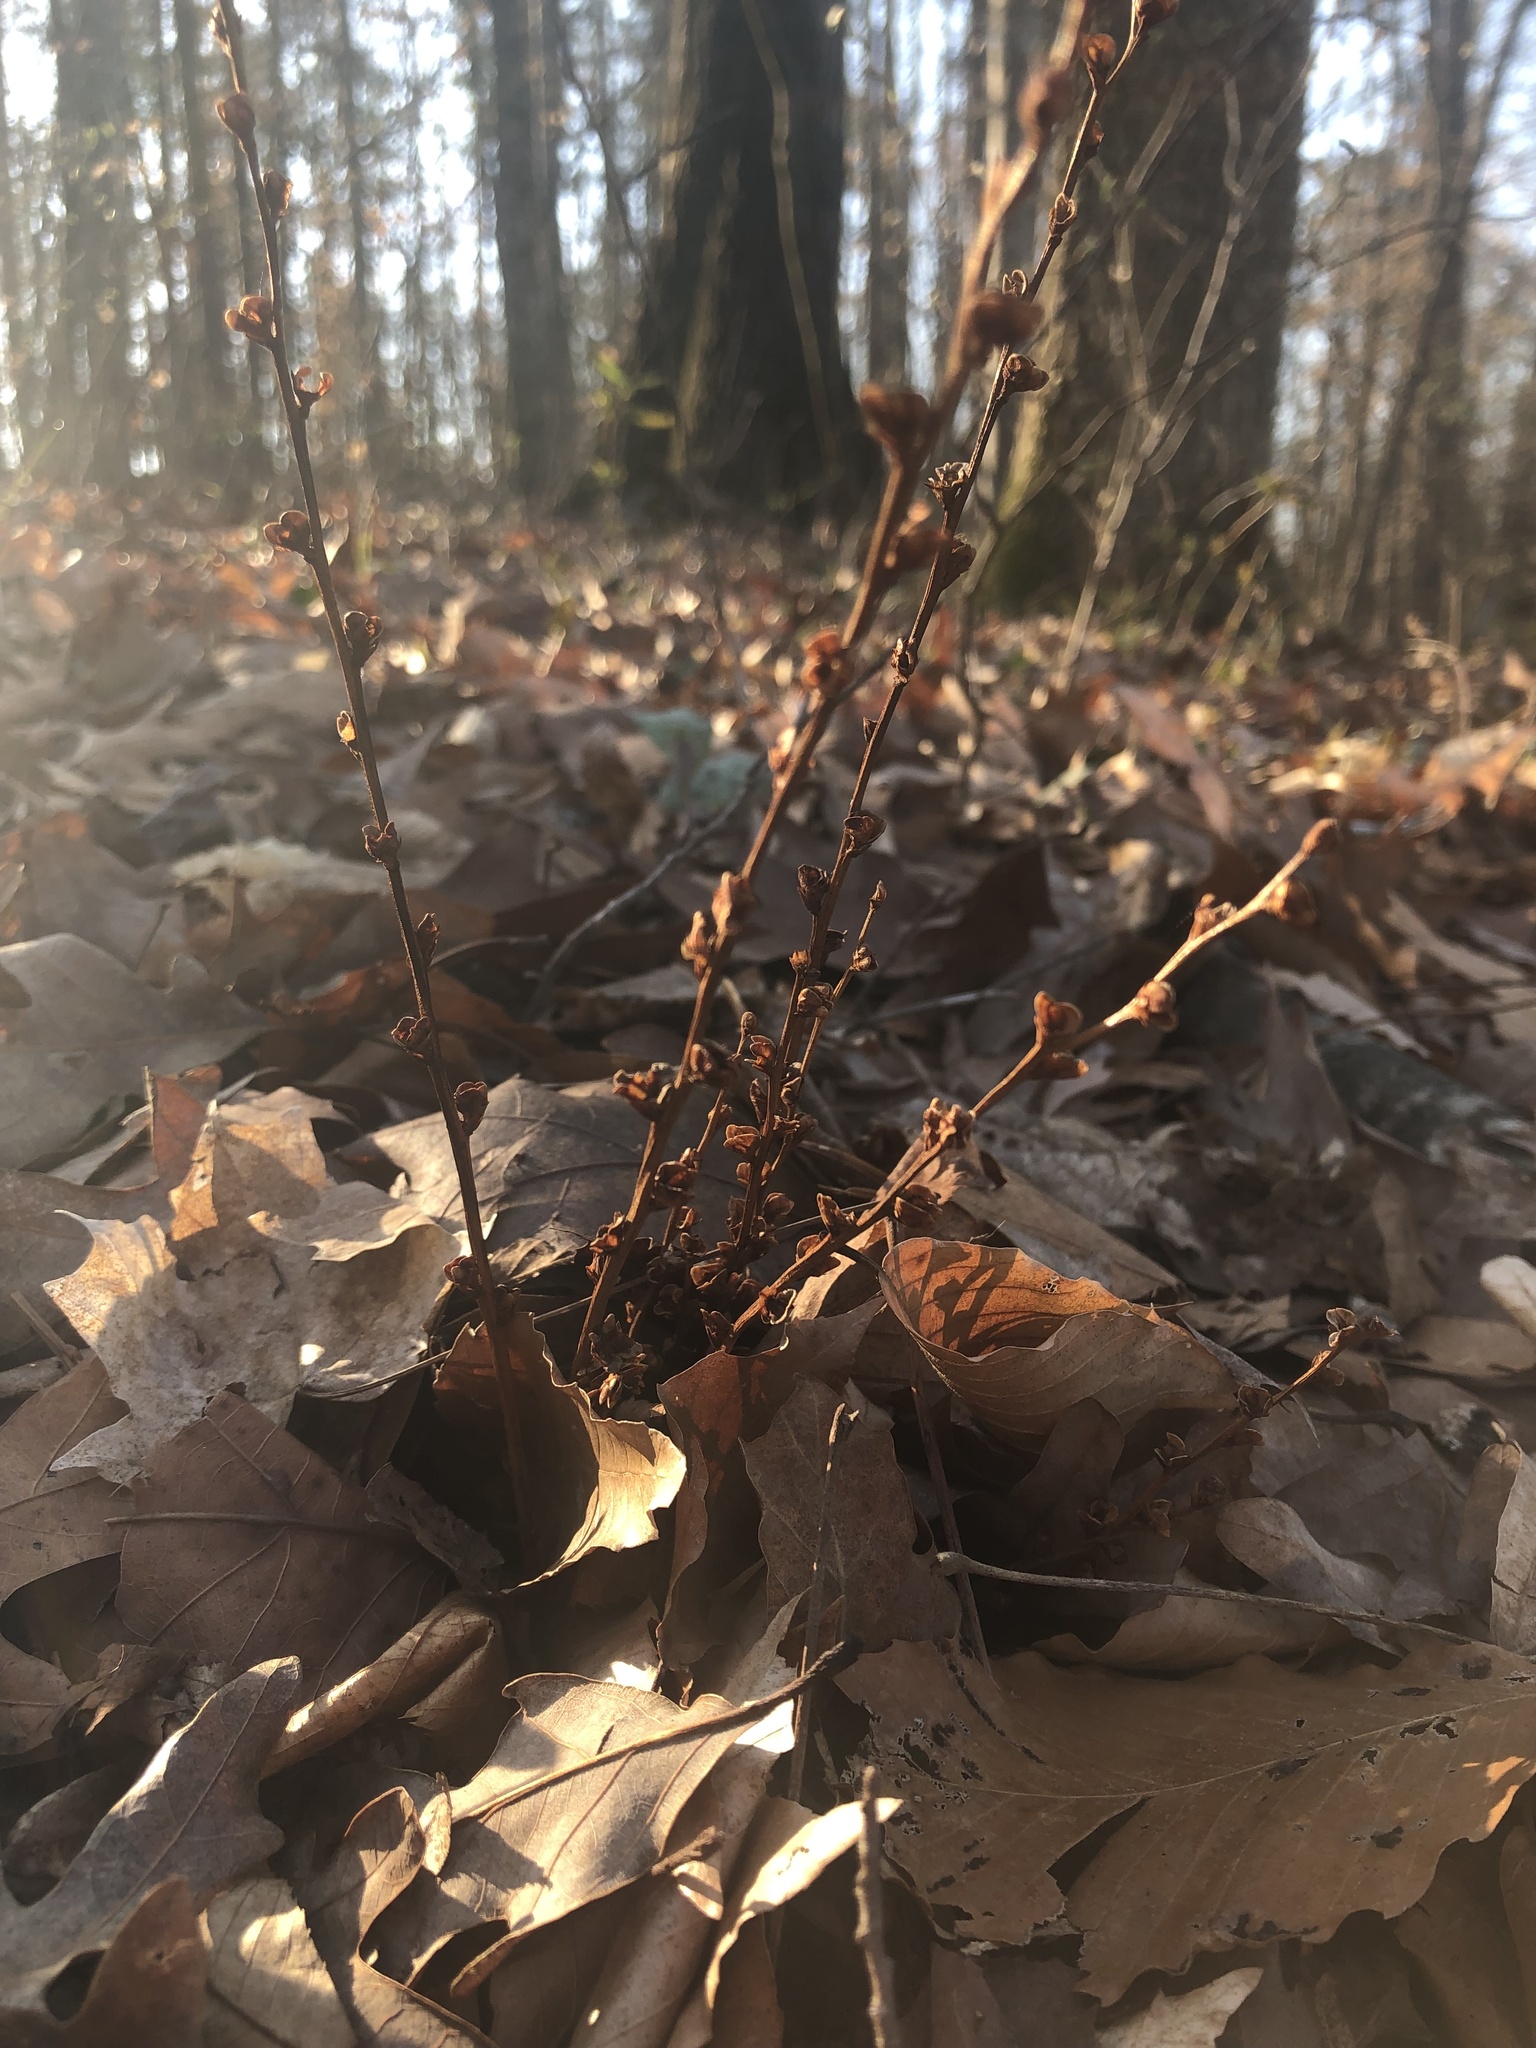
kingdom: Plantae
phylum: Tracheophyta
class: Magnoliopsida
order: Lamiales
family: Orobanchaceae
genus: Epifagus
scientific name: Epifagus virginiana
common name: Beechdrops
